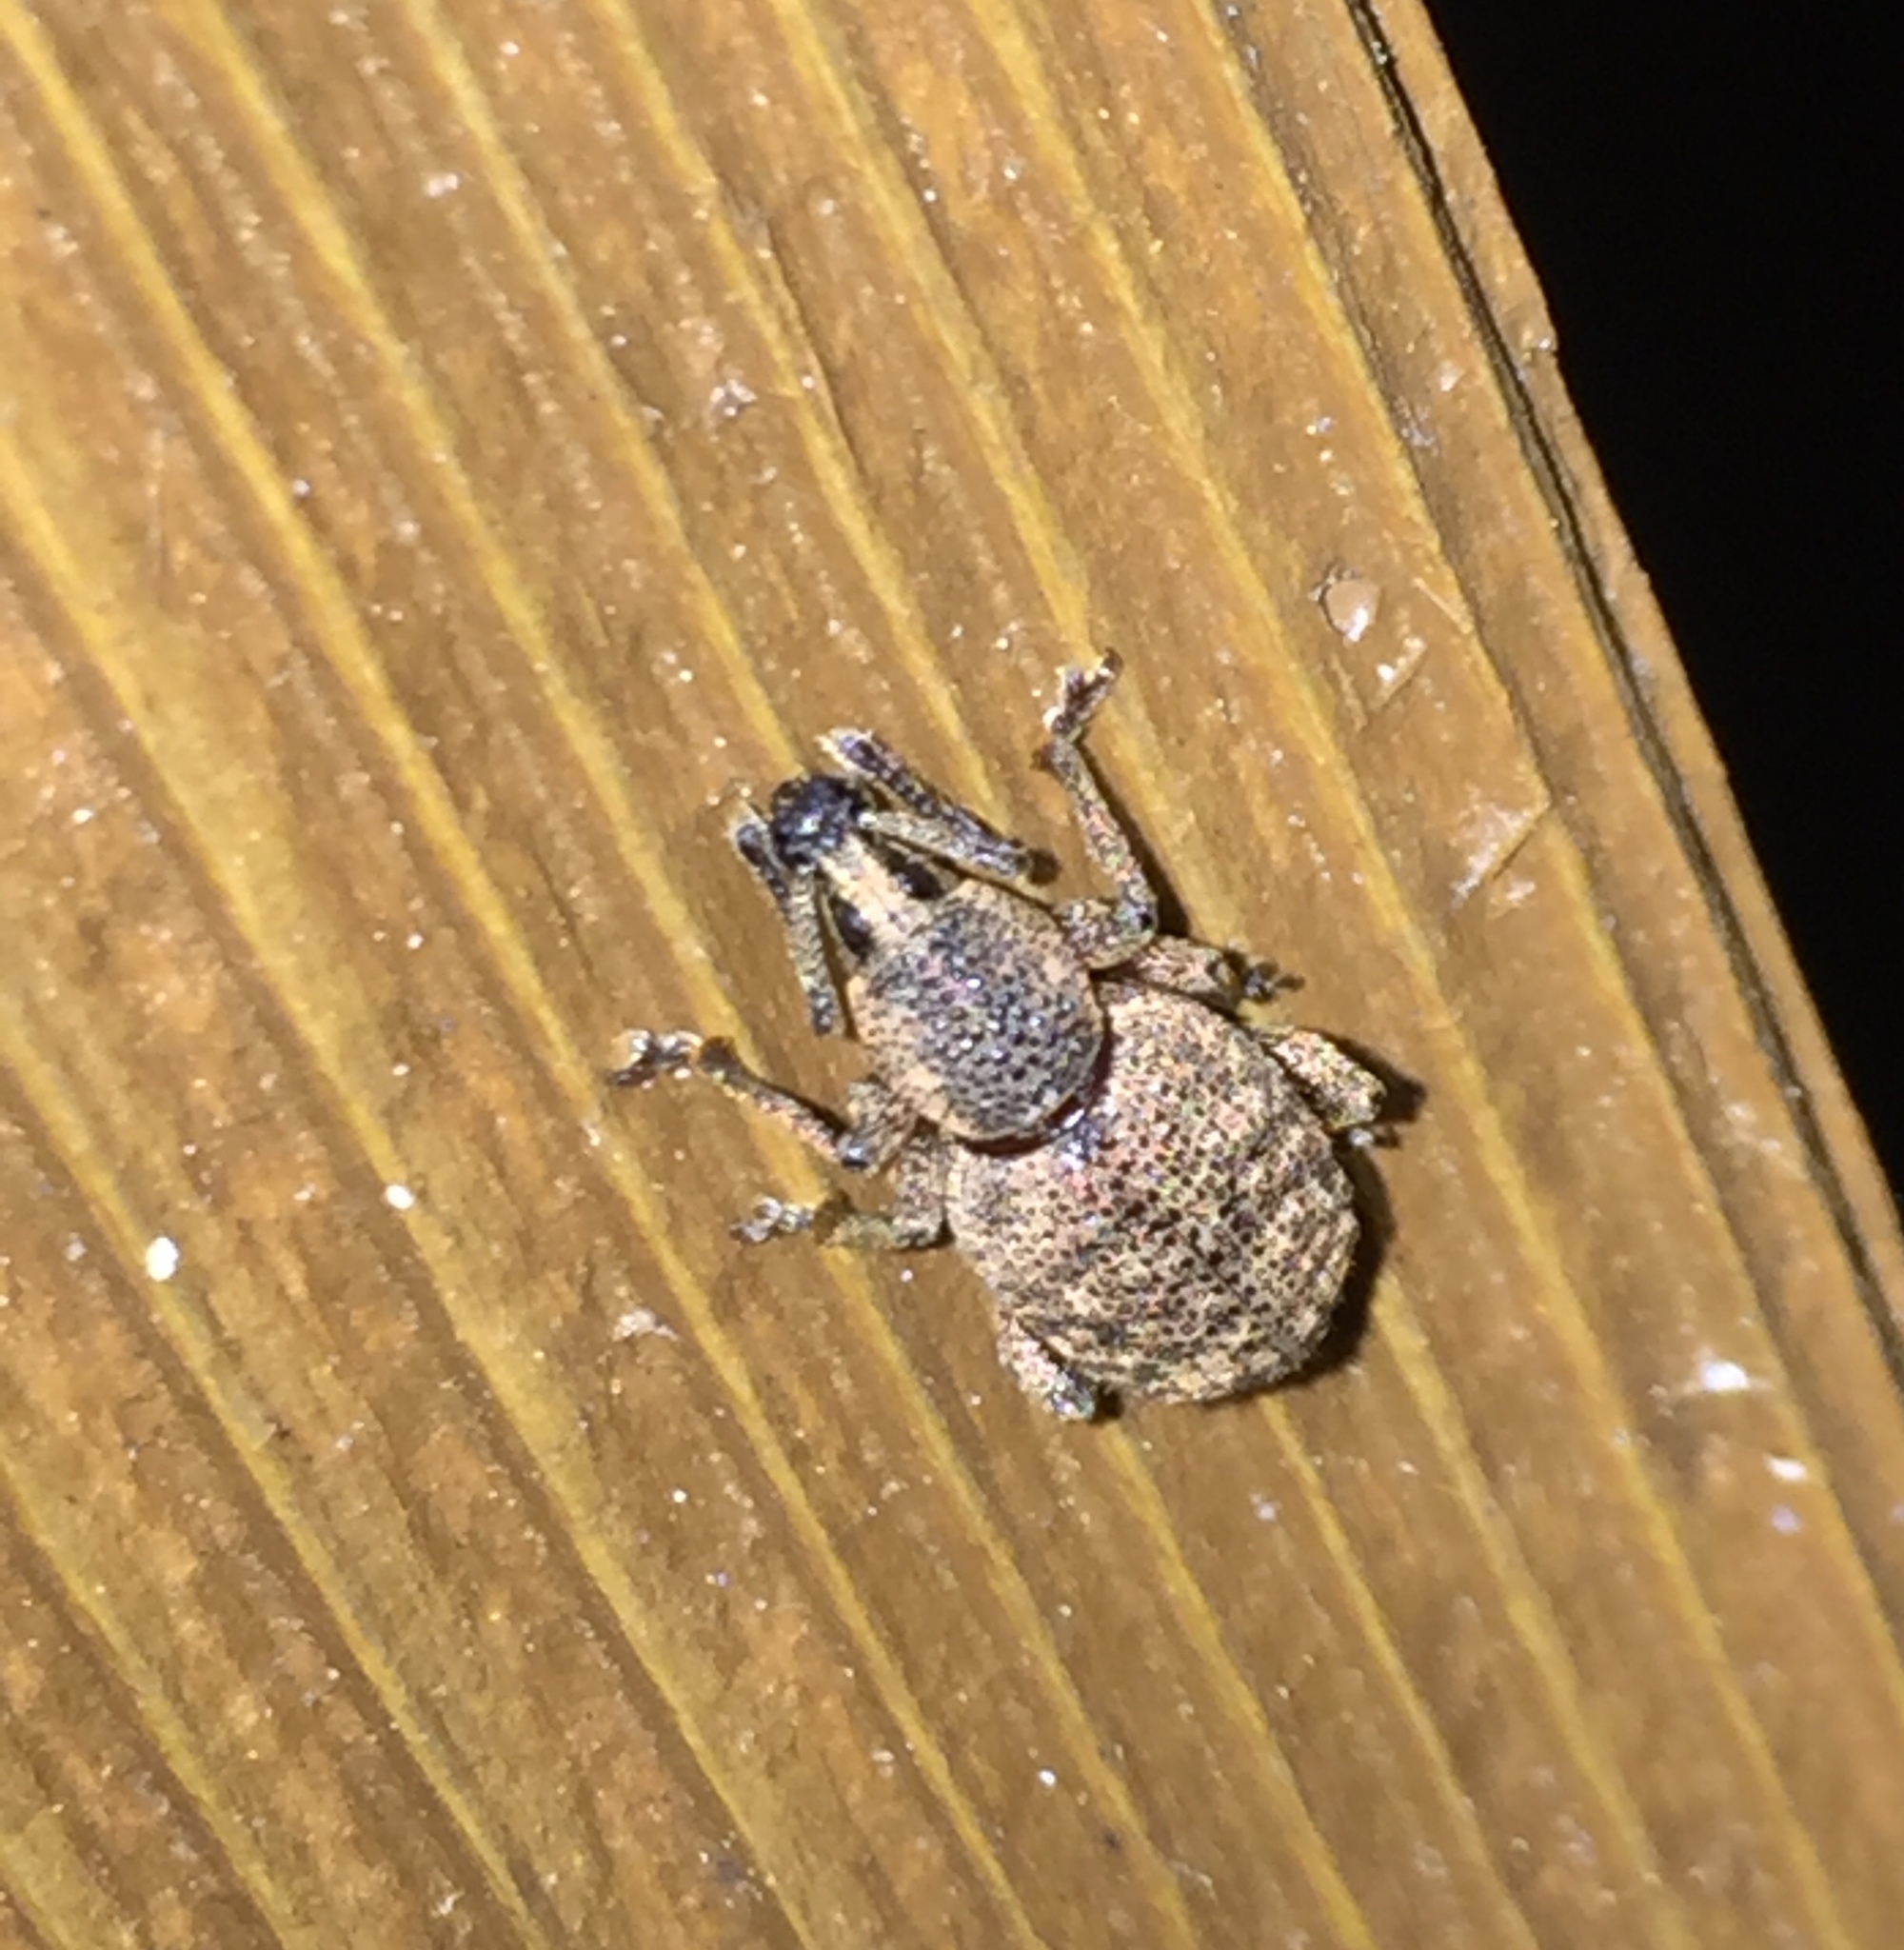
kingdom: Animalia
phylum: Arthropoda
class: Insecta
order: Coleoptera
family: Curculionidae
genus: Otiorhynchus
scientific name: Otiorhynchus singularis
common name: Clay-coloured weevil
